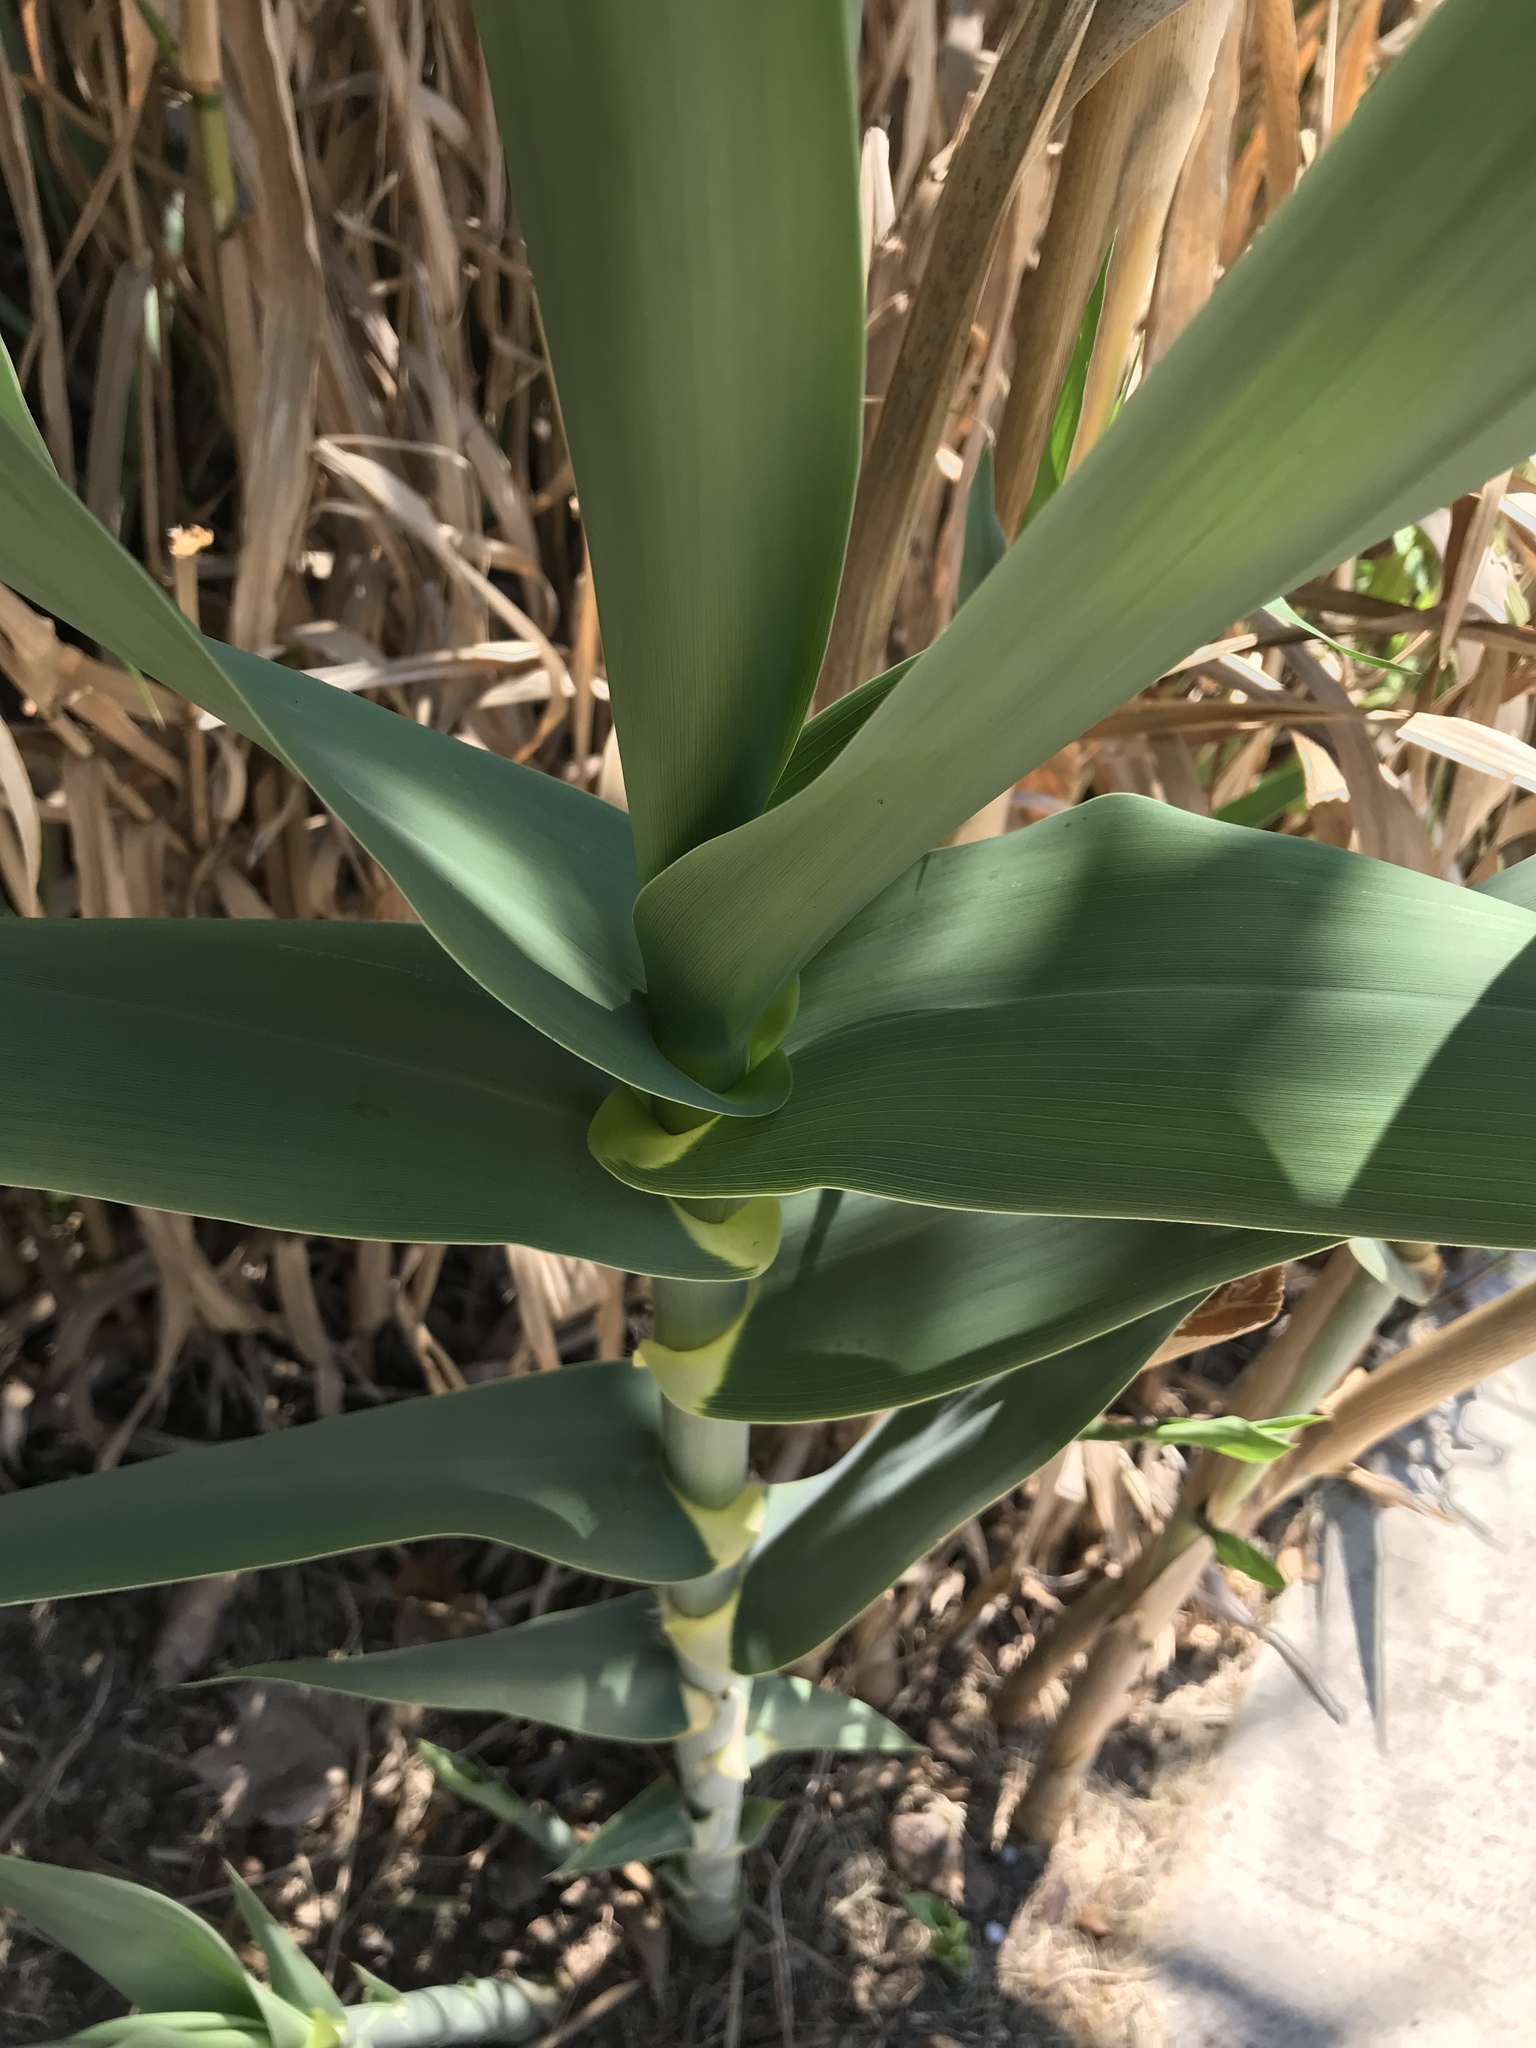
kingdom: Plantae
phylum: Tracheophyta
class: Liliopsida
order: Poales
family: Poaceae
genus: Arundo
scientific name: Arundo donax
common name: Giant reed
